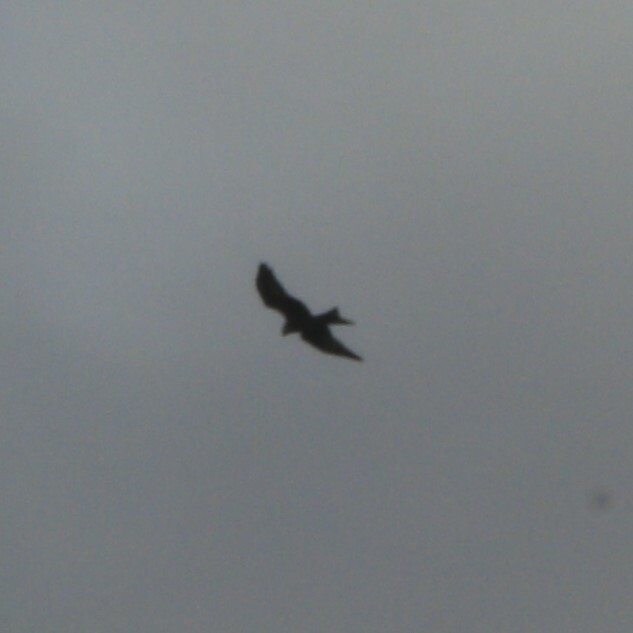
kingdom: Animalia
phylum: Chordata
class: Aves
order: Accipitriformes
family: Accipitridae
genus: Milvus
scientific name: Milvus milvus
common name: Red kite
